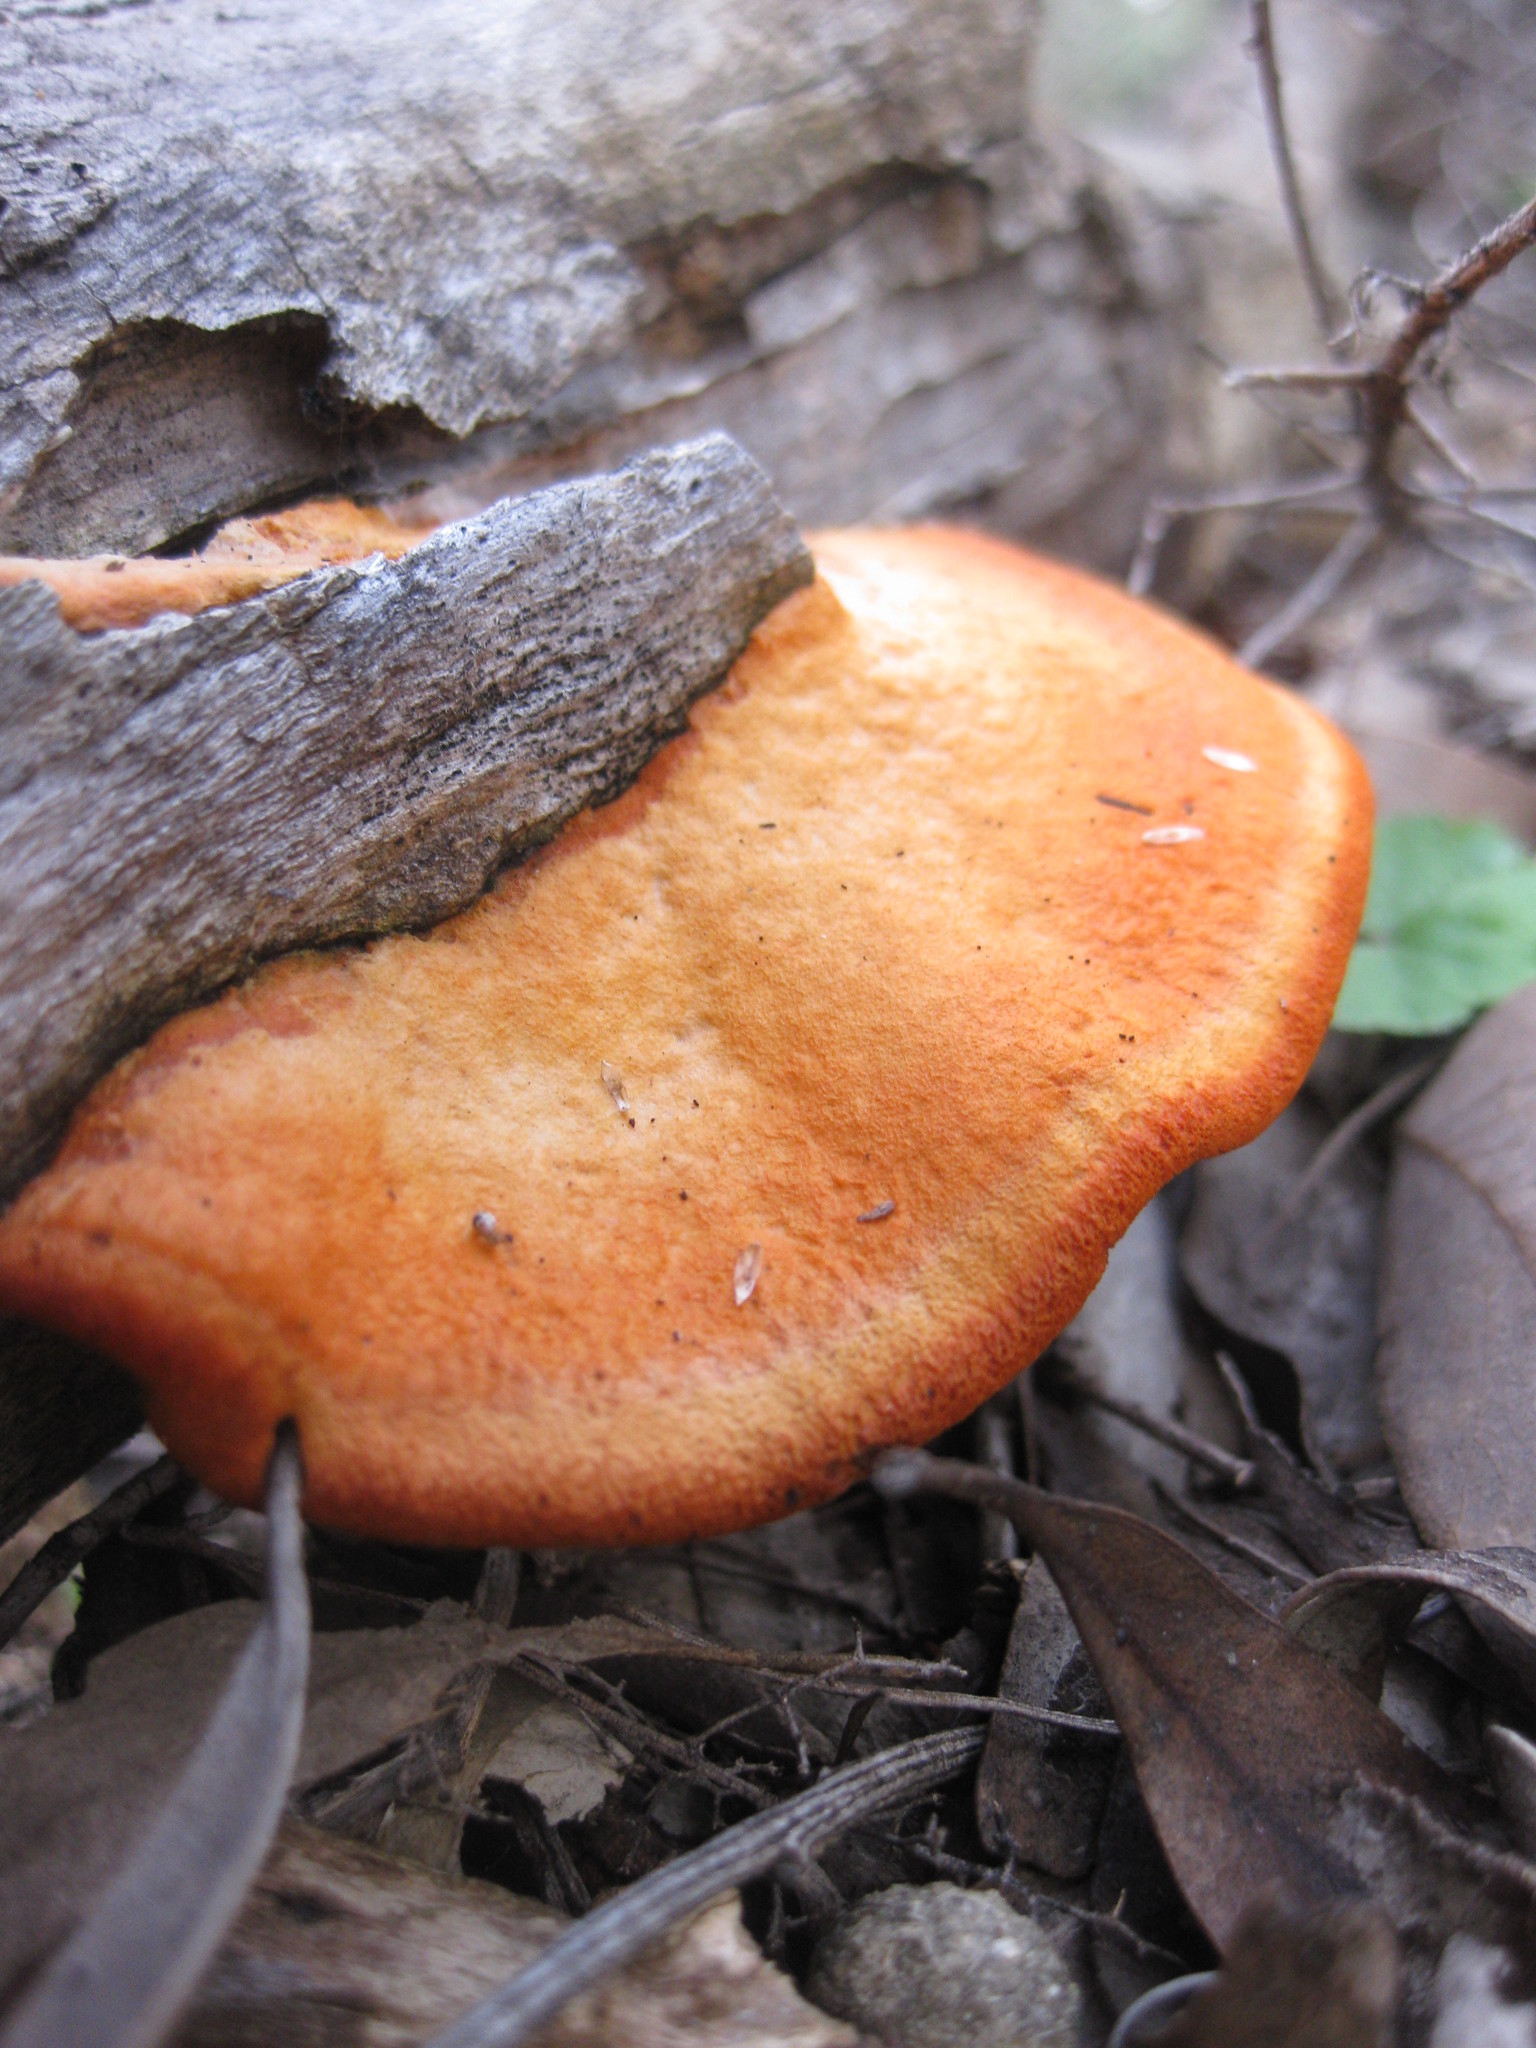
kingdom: Fungi
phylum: Basidiomycota
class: Agaricomycetes
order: Polyporales
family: Polyporaceae
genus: Trametes
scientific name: Trametes coccinea
